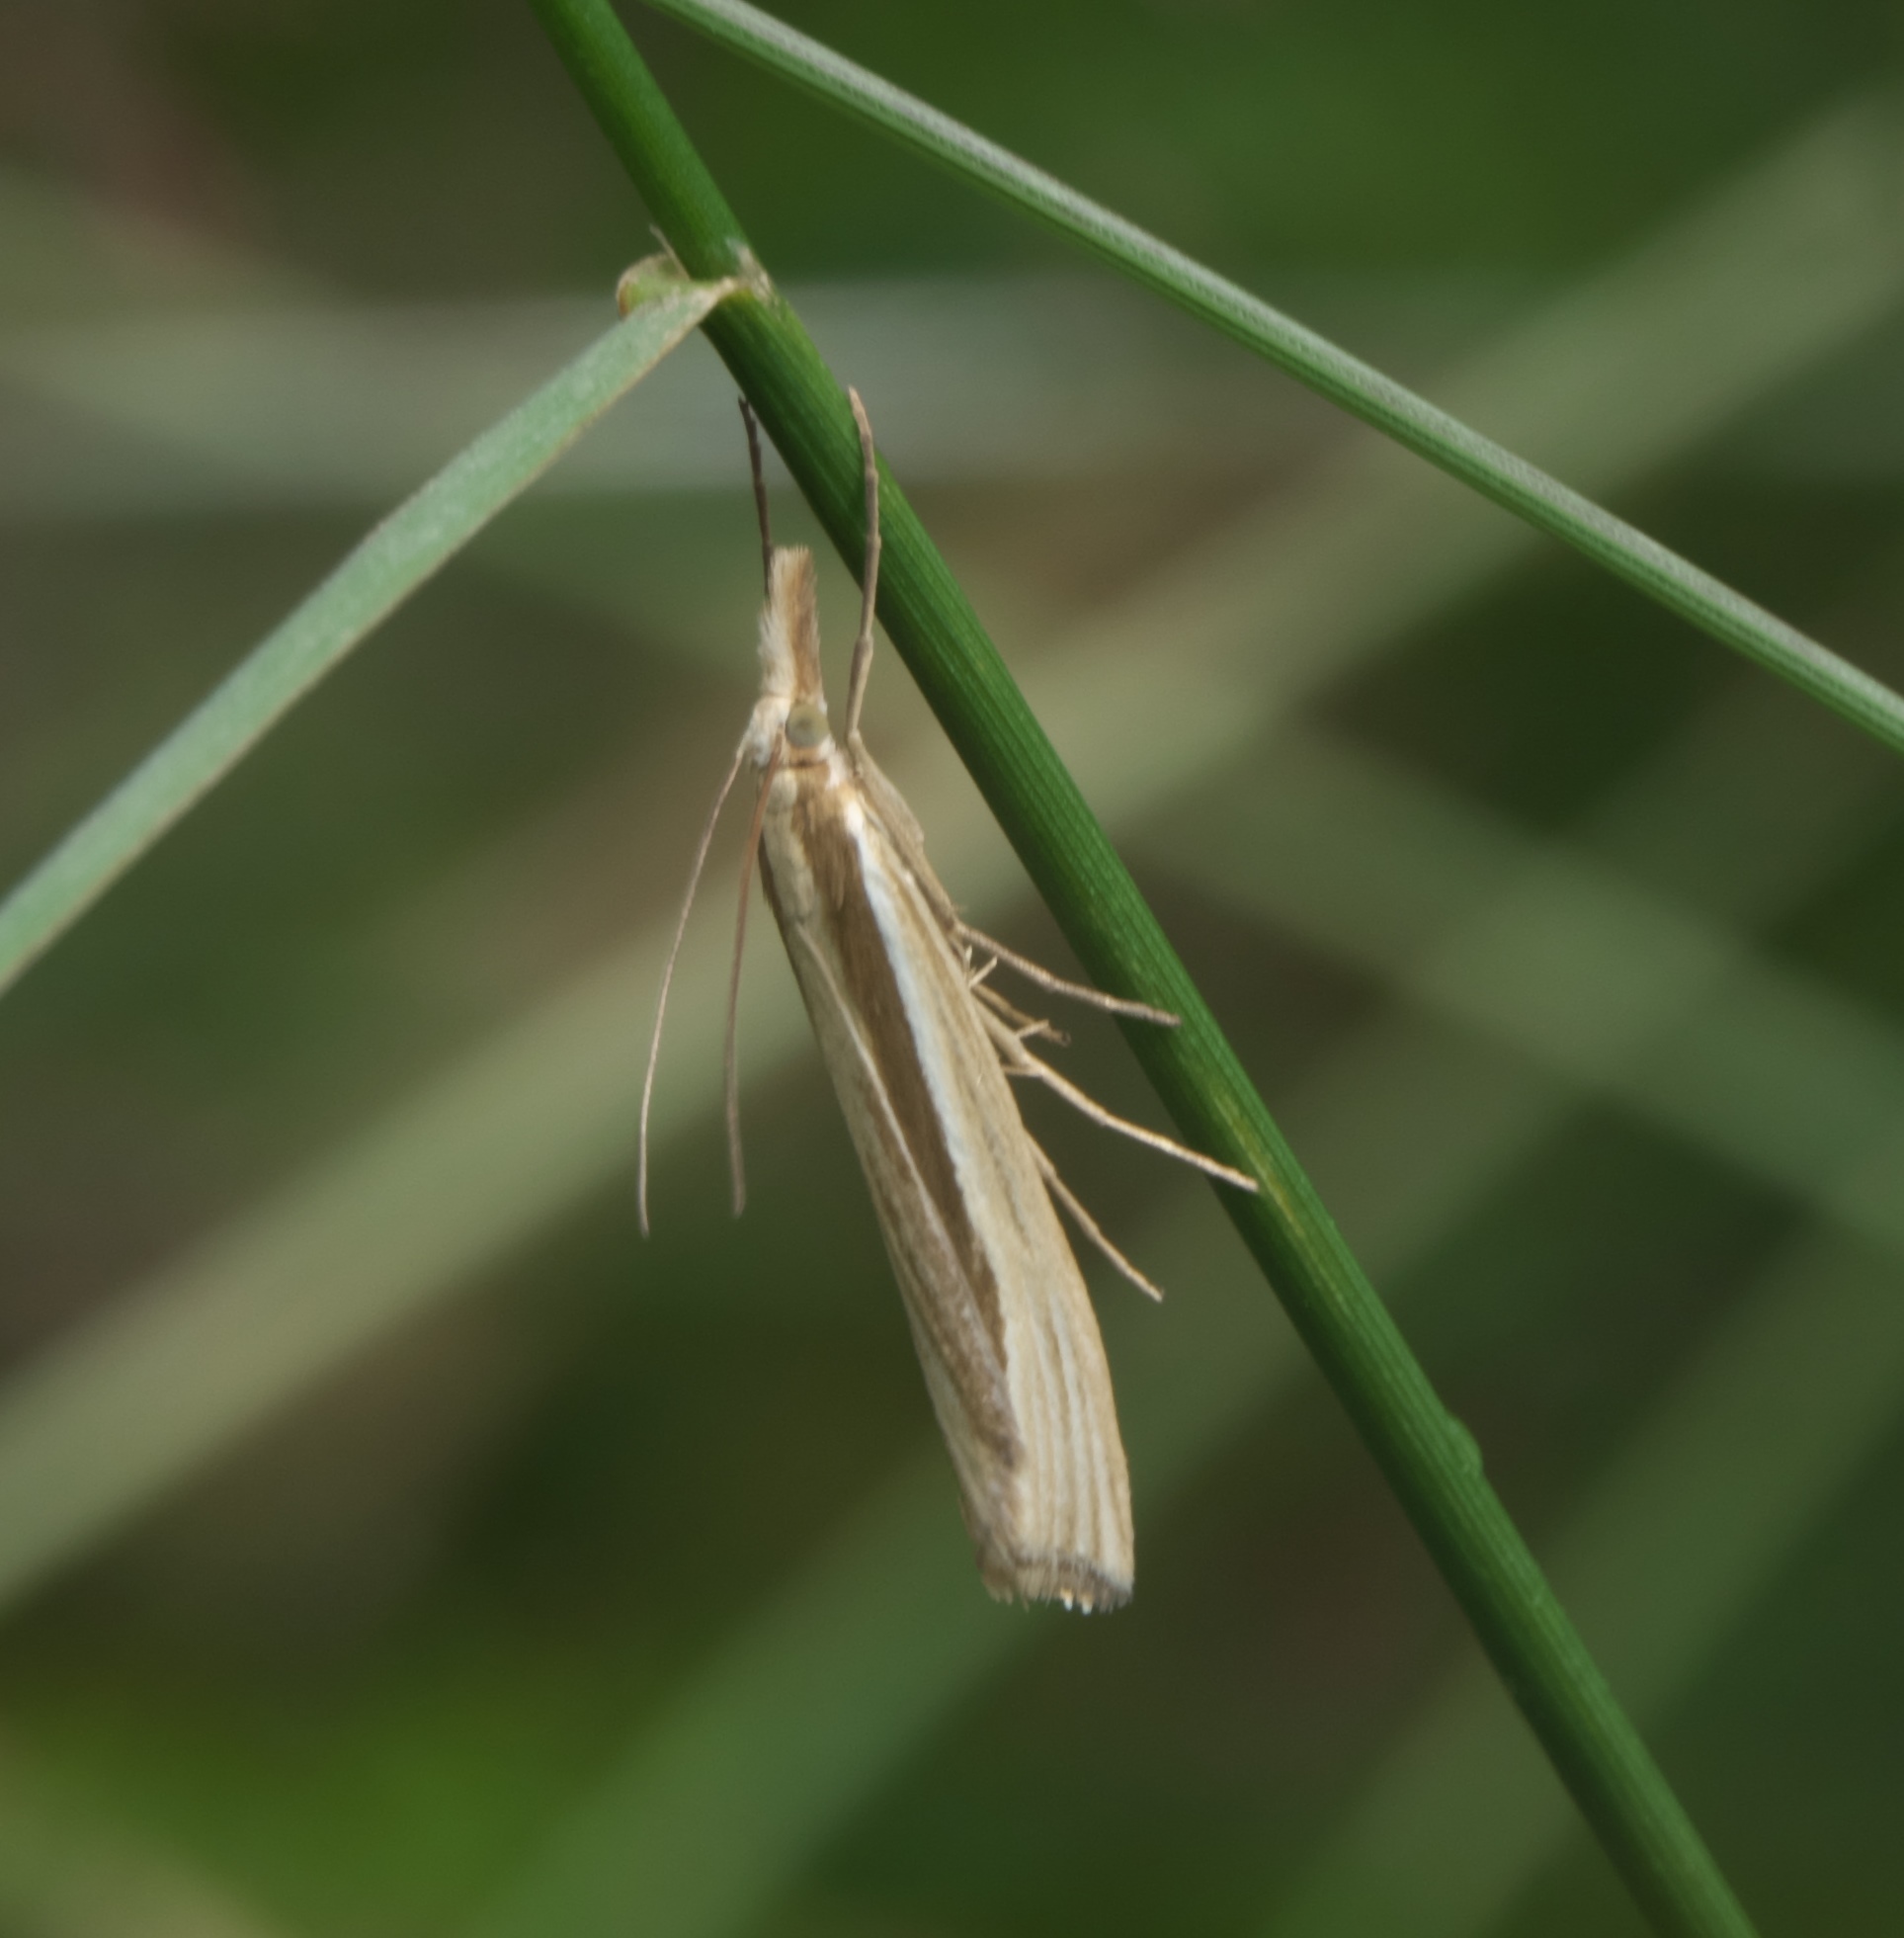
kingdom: Animalia
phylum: Arthropoda
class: Insecta
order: Lepidoptera
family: Crambidae
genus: Orocrambus
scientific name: Orocrambus ramosellus
